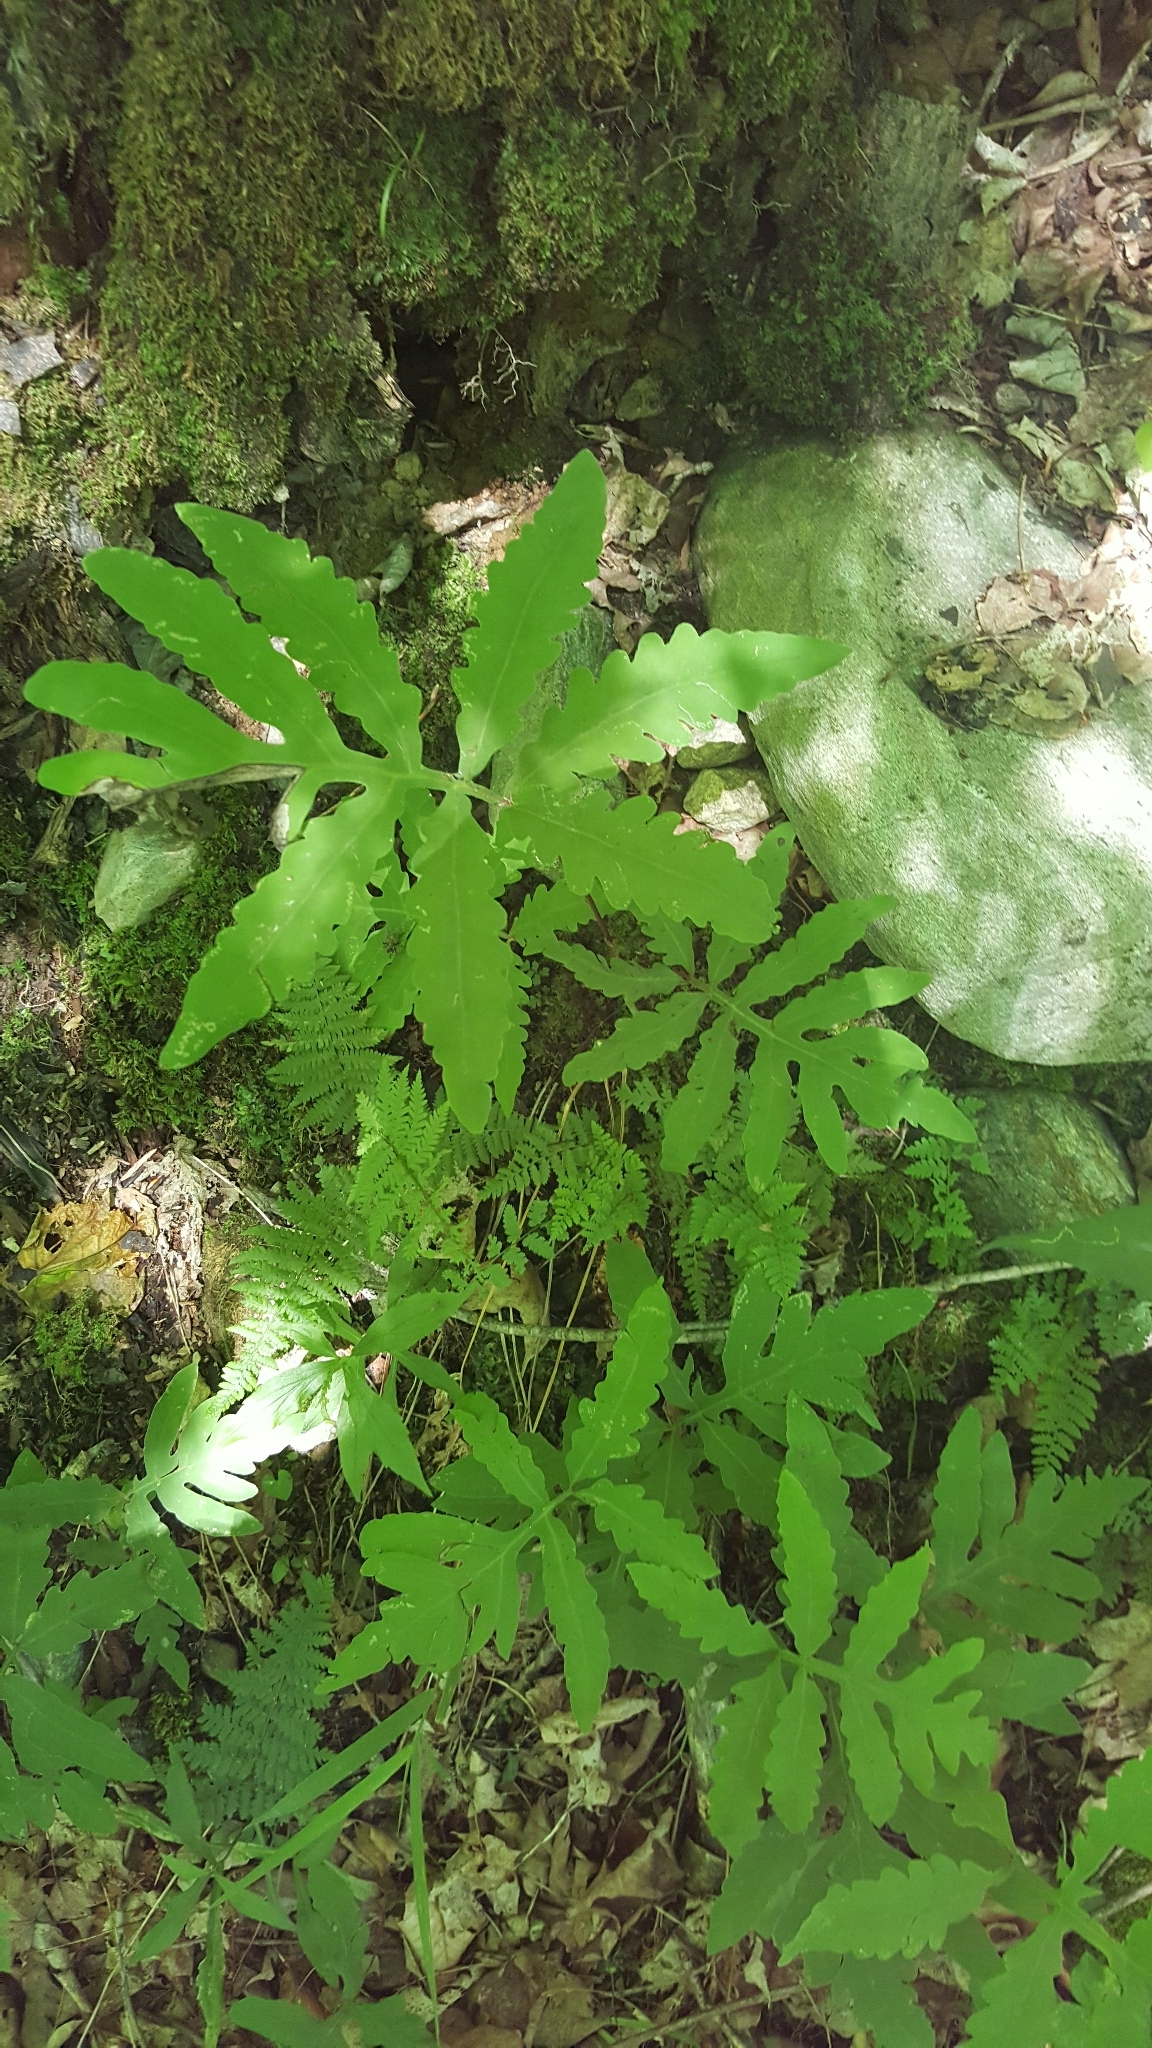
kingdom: Plantae
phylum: Tracheophyta
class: Polypodiopsida
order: Polypodiales
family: Onocleaceae
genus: Onoclea
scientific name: Onoclea sensibilis
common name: Sensitive fern
